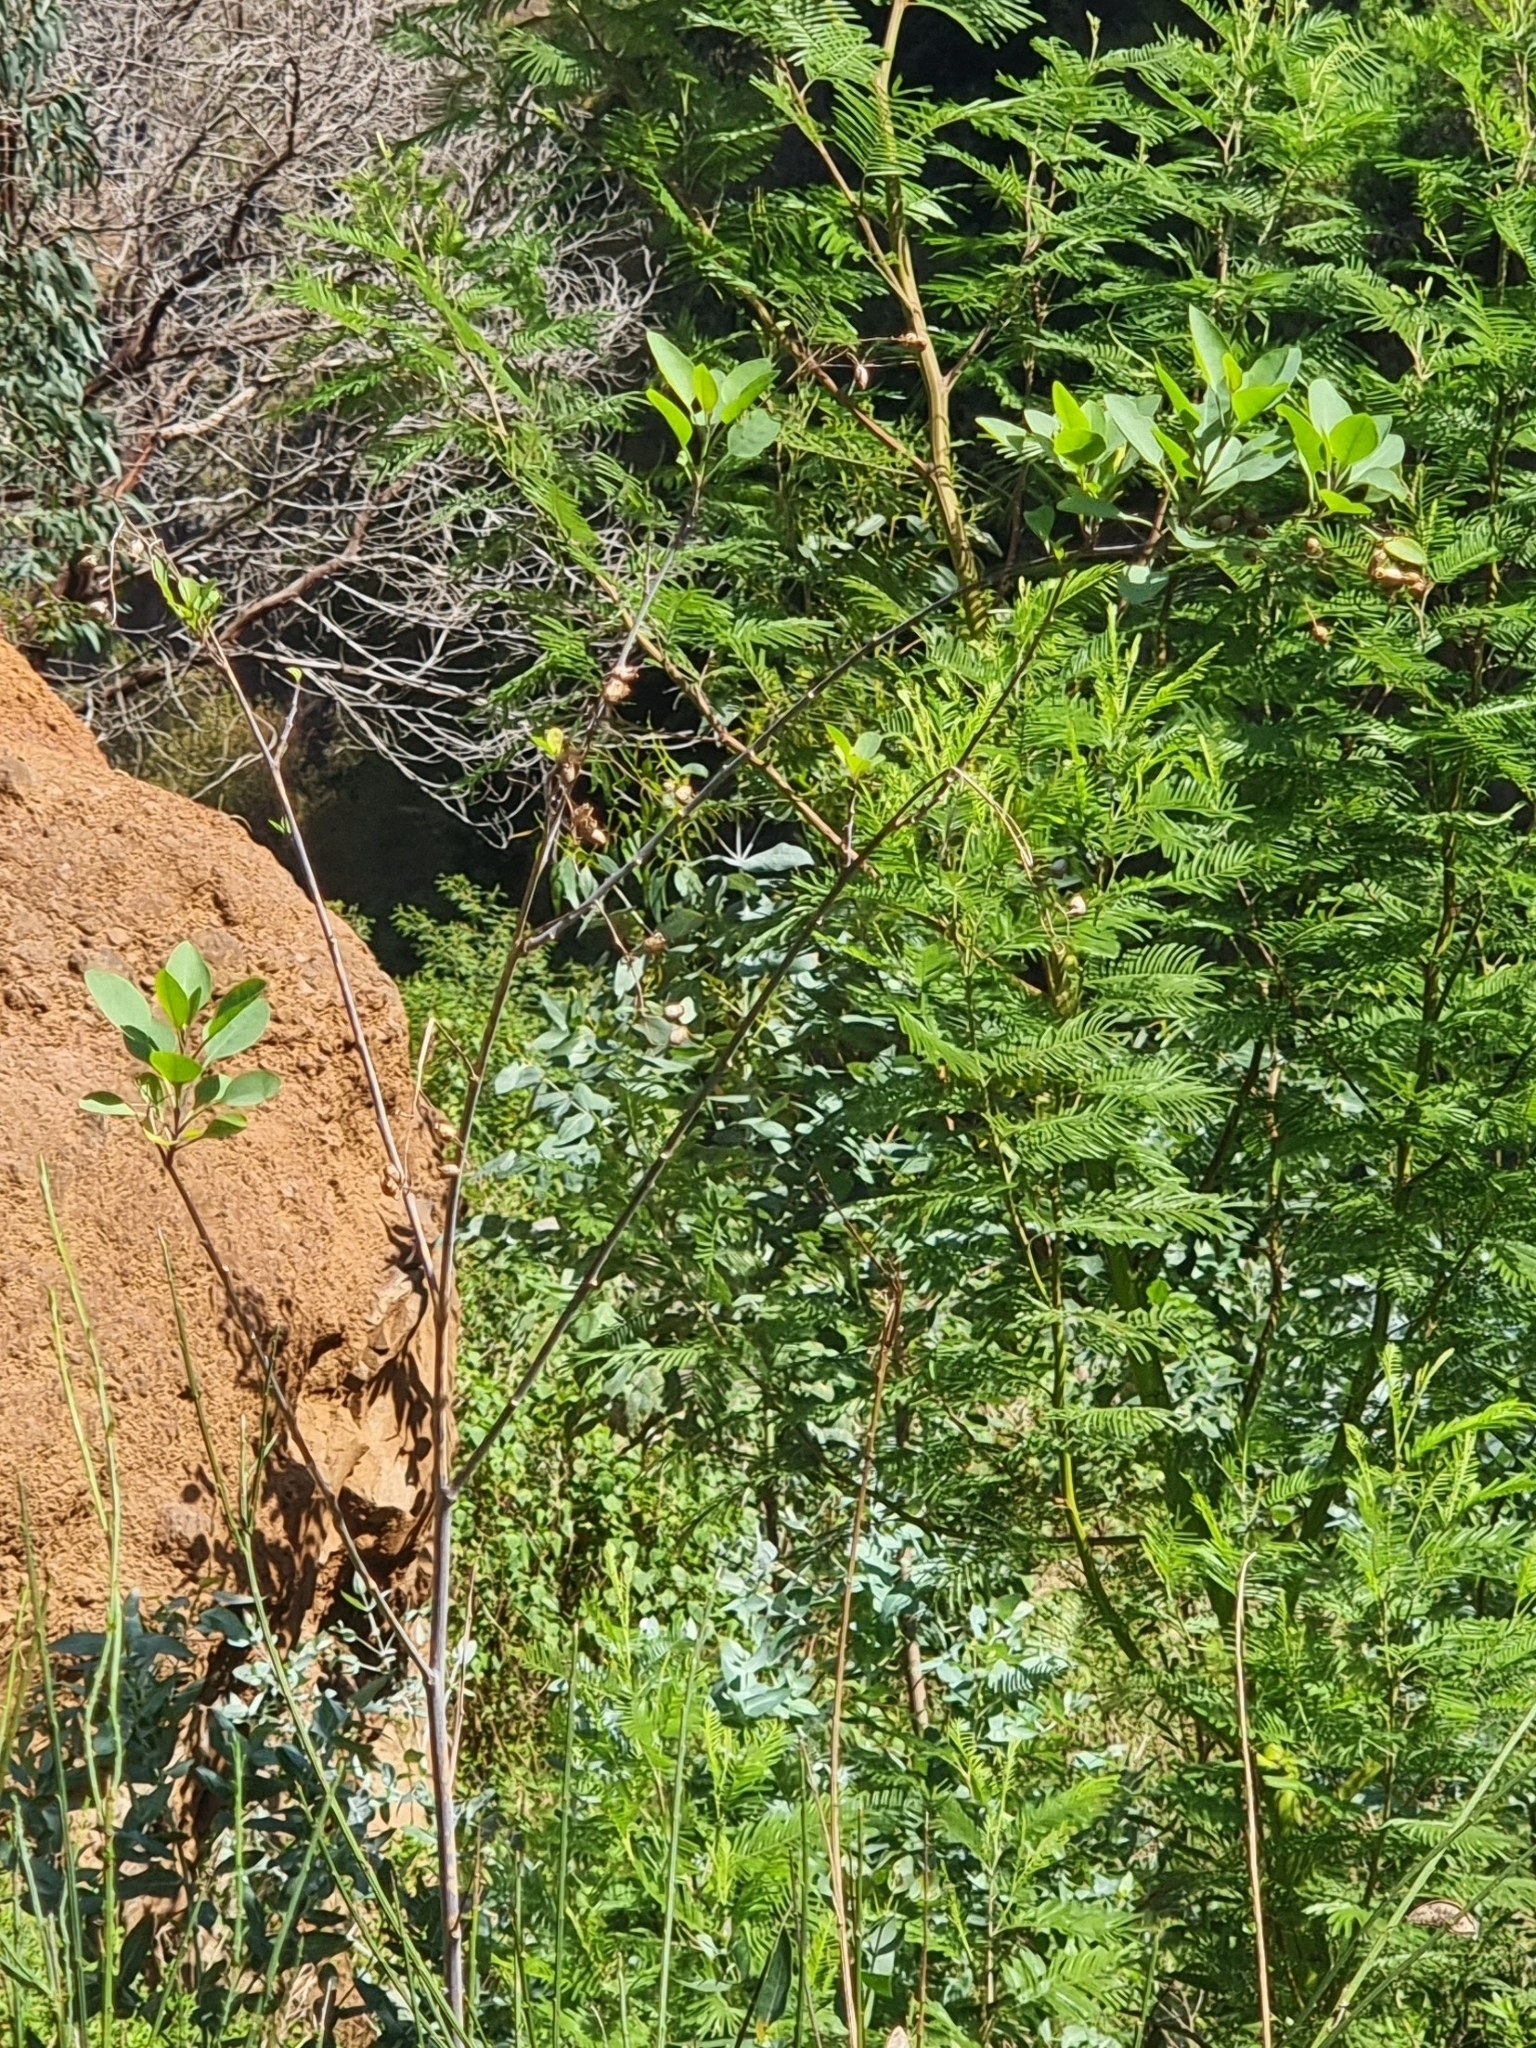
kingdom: Plantae
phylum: Tracheophyta
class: Magnoliopsida
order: Solanales
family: Solanaceae
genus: Nicotiana
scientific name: Nicotiana glauca
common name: Tree tobacco
